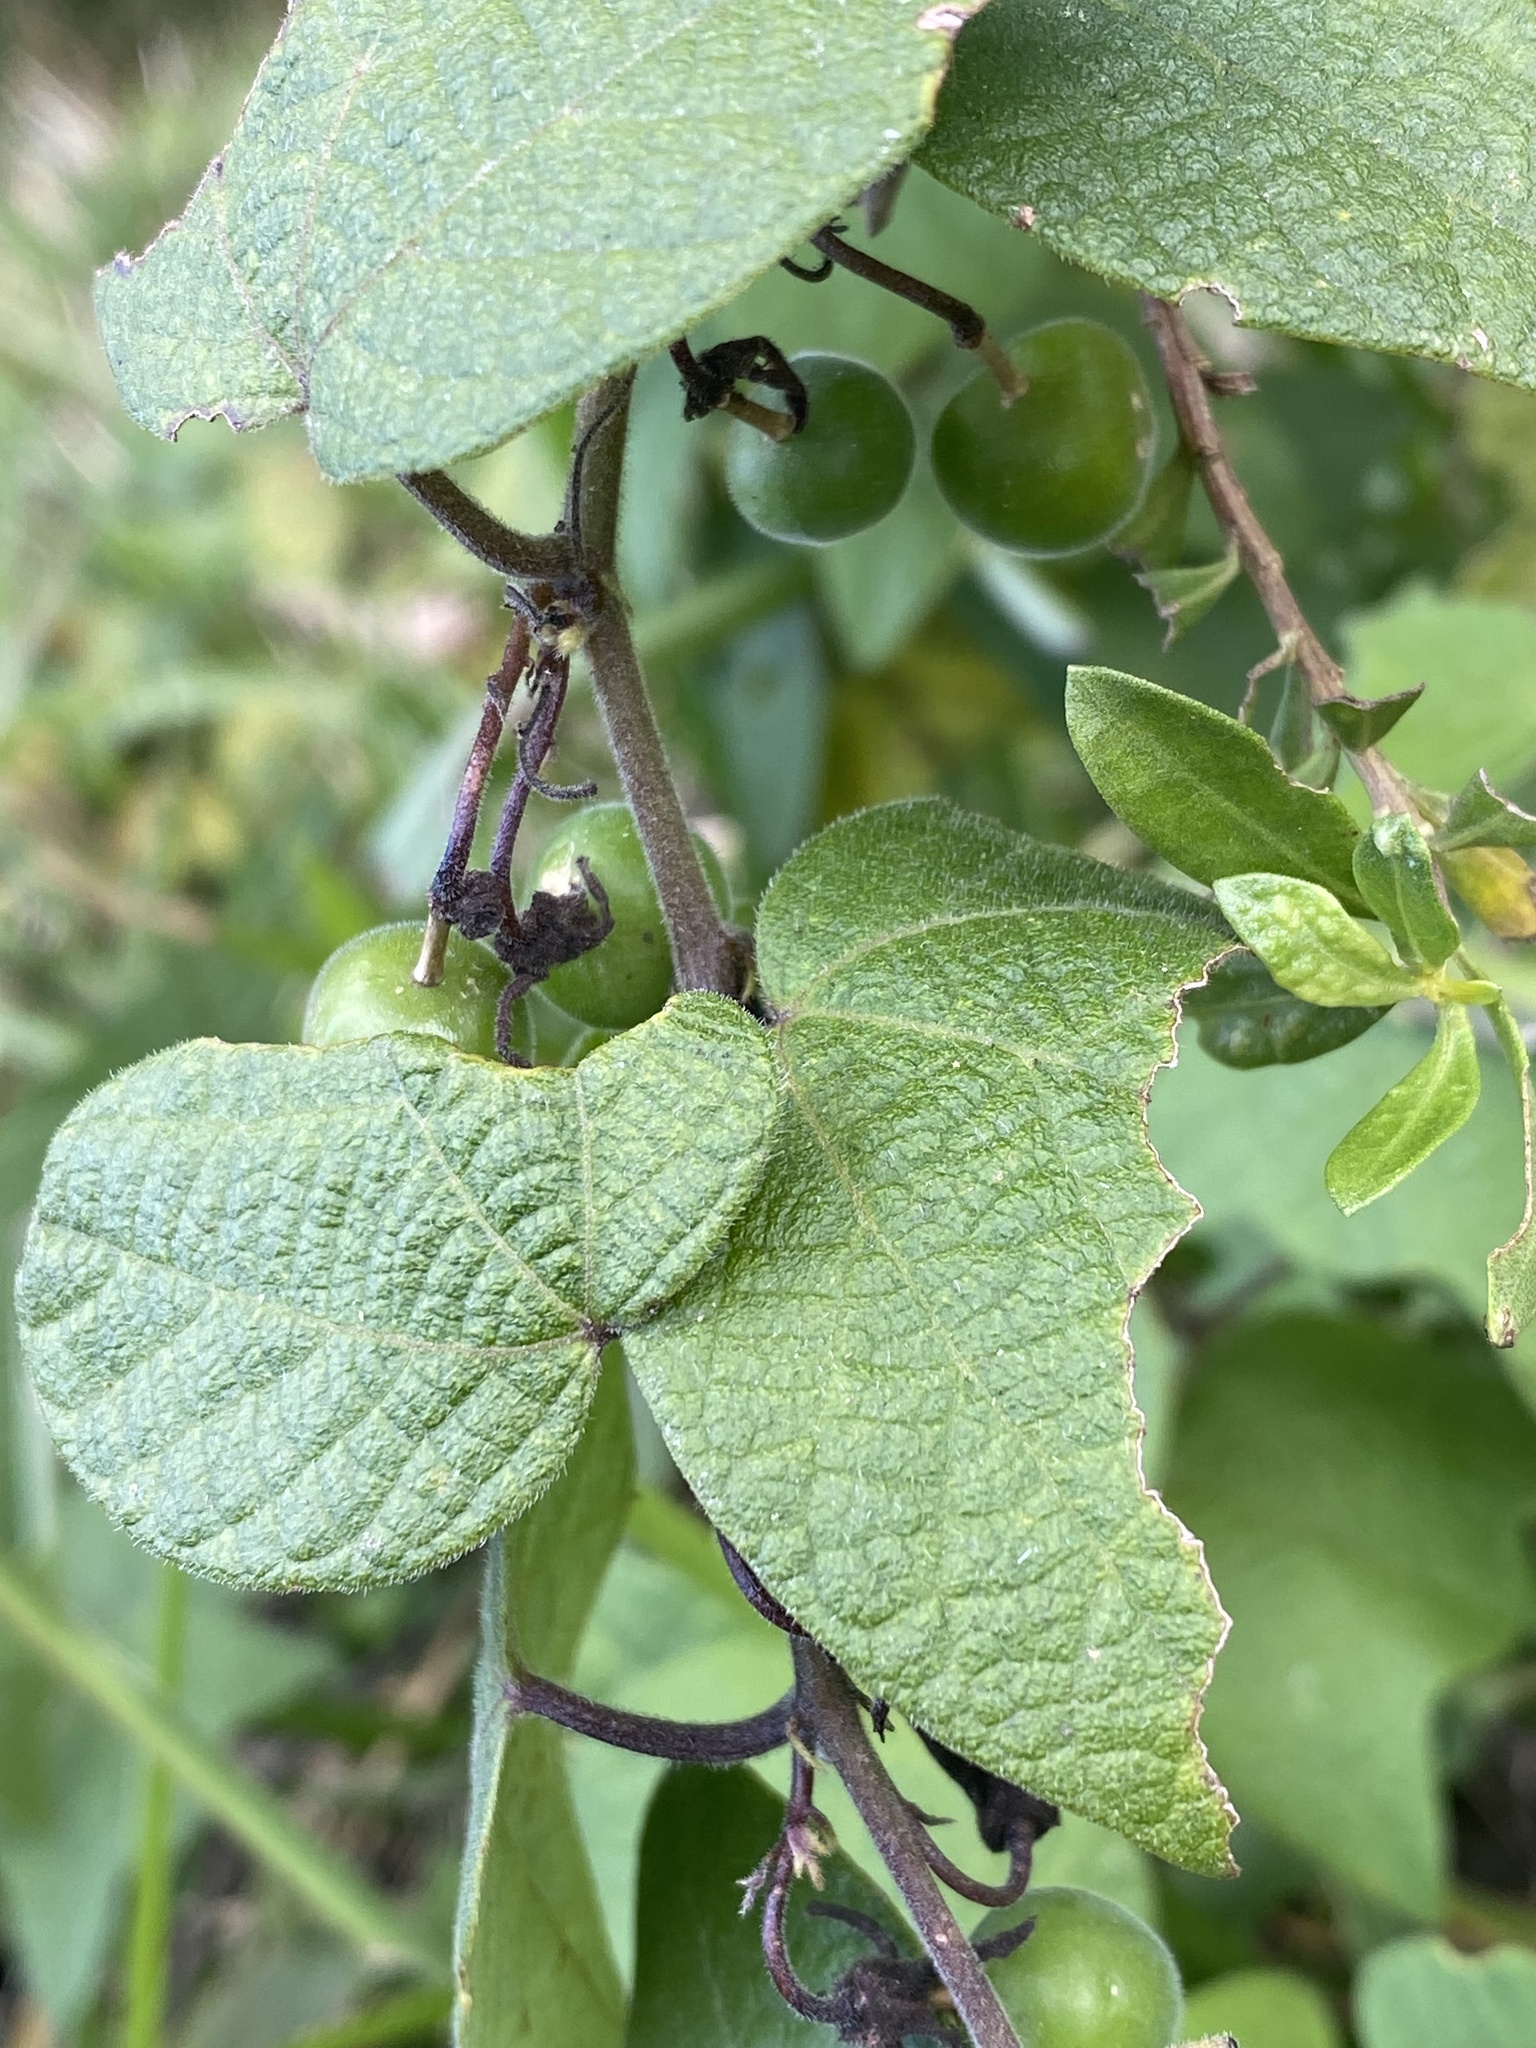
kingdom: Plantae
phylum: Tracheophyta
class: Magnoliopsida
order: Malpighiales
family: Passifloraceae
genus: Passiflora
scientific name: Passiflora sexflora
